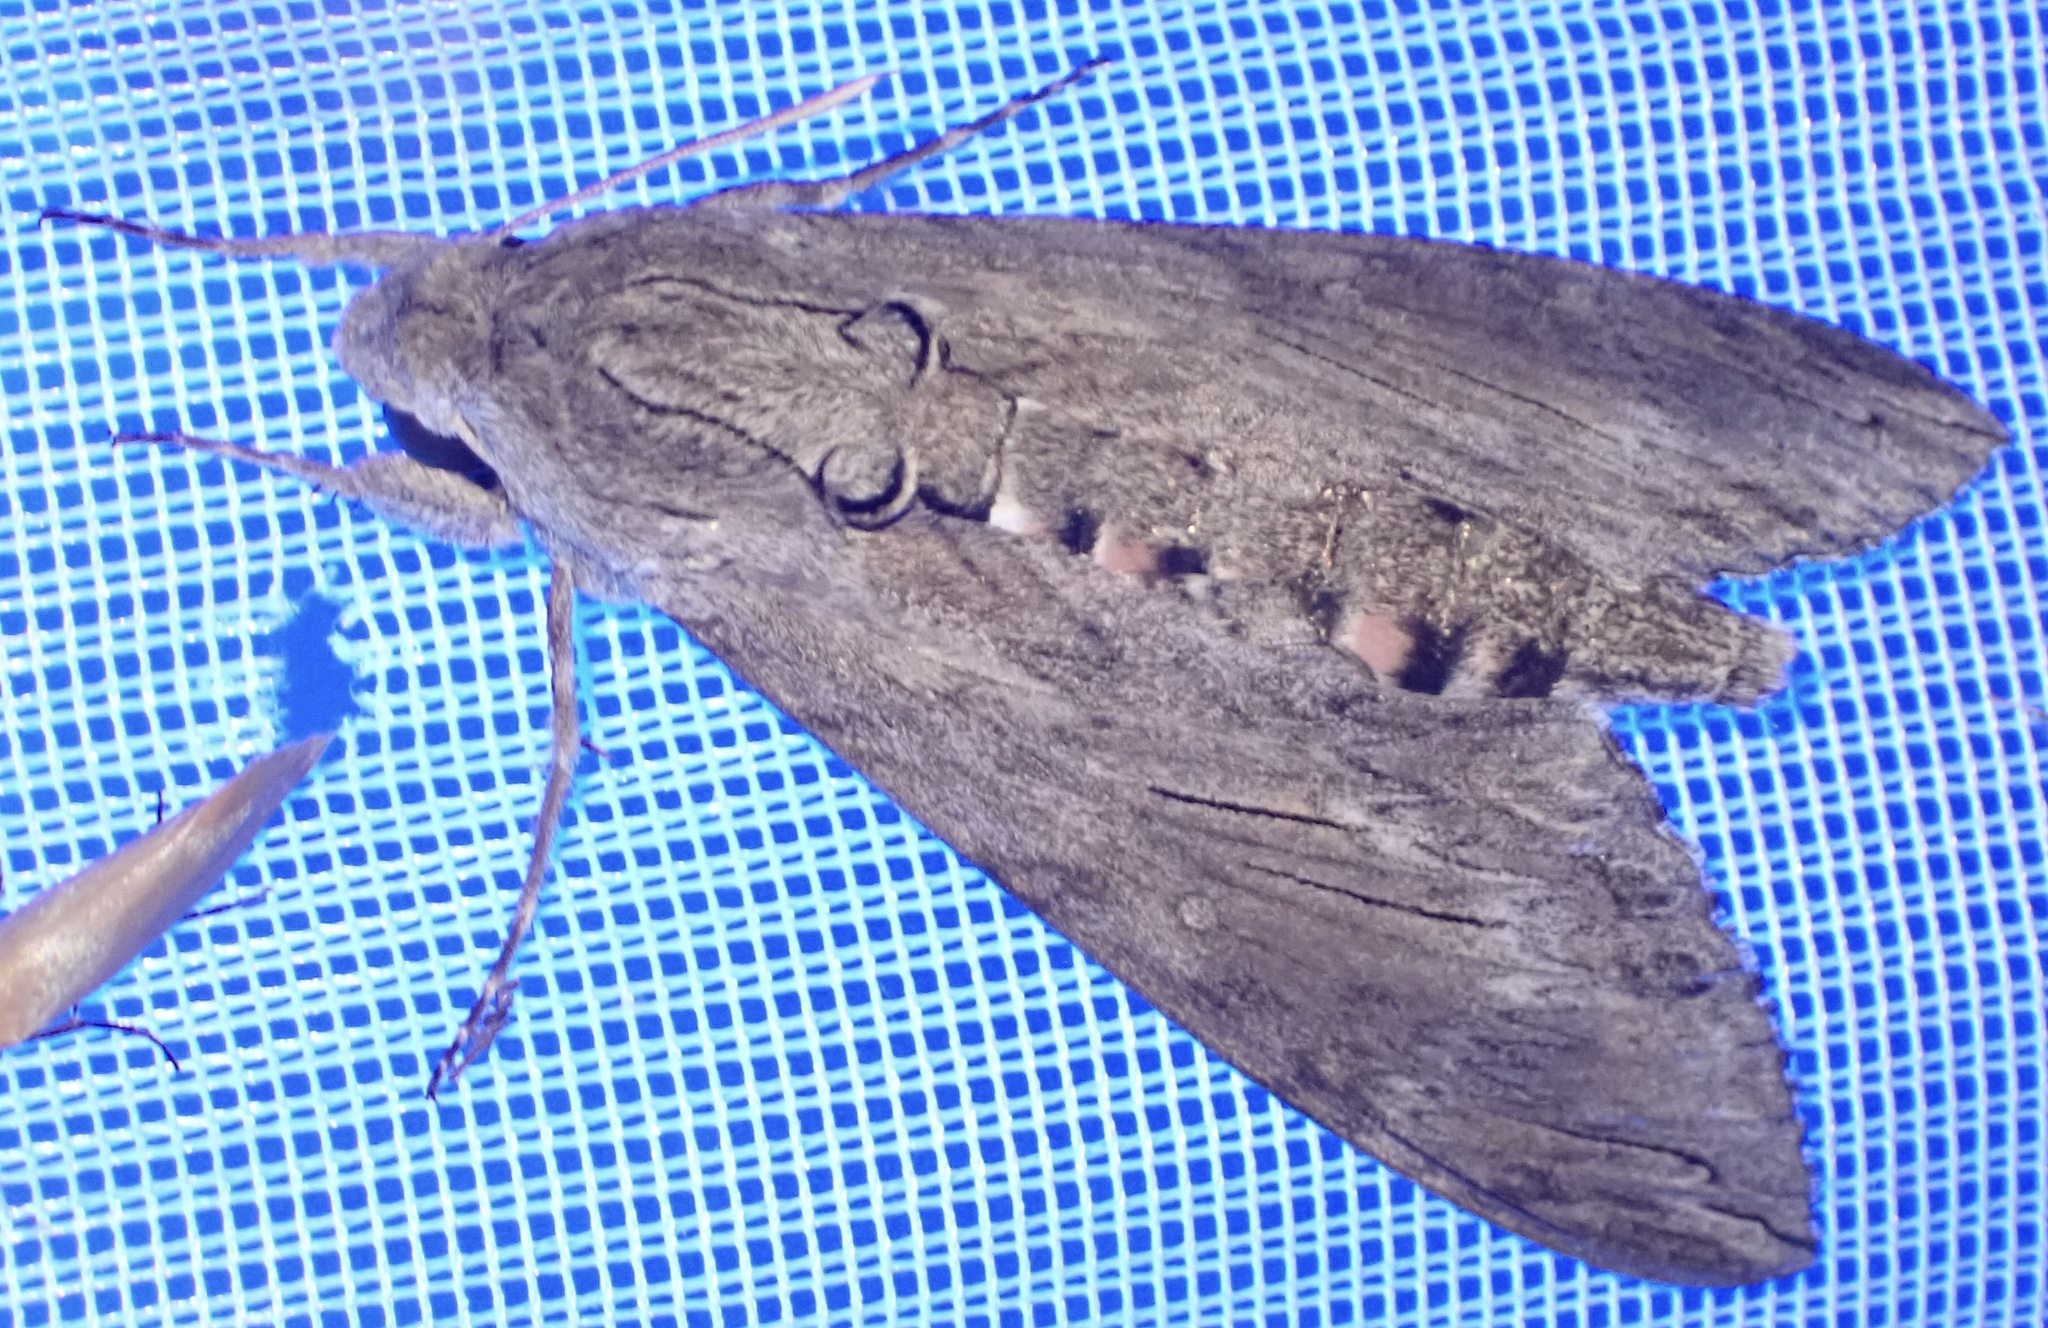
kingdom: Animalia
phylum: Arthropoda
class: Insecta
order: Lepidoptera
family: Sphingidae
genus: Agrius
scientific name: Agrius convolvuli
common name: Convolvulus hawkmoth
